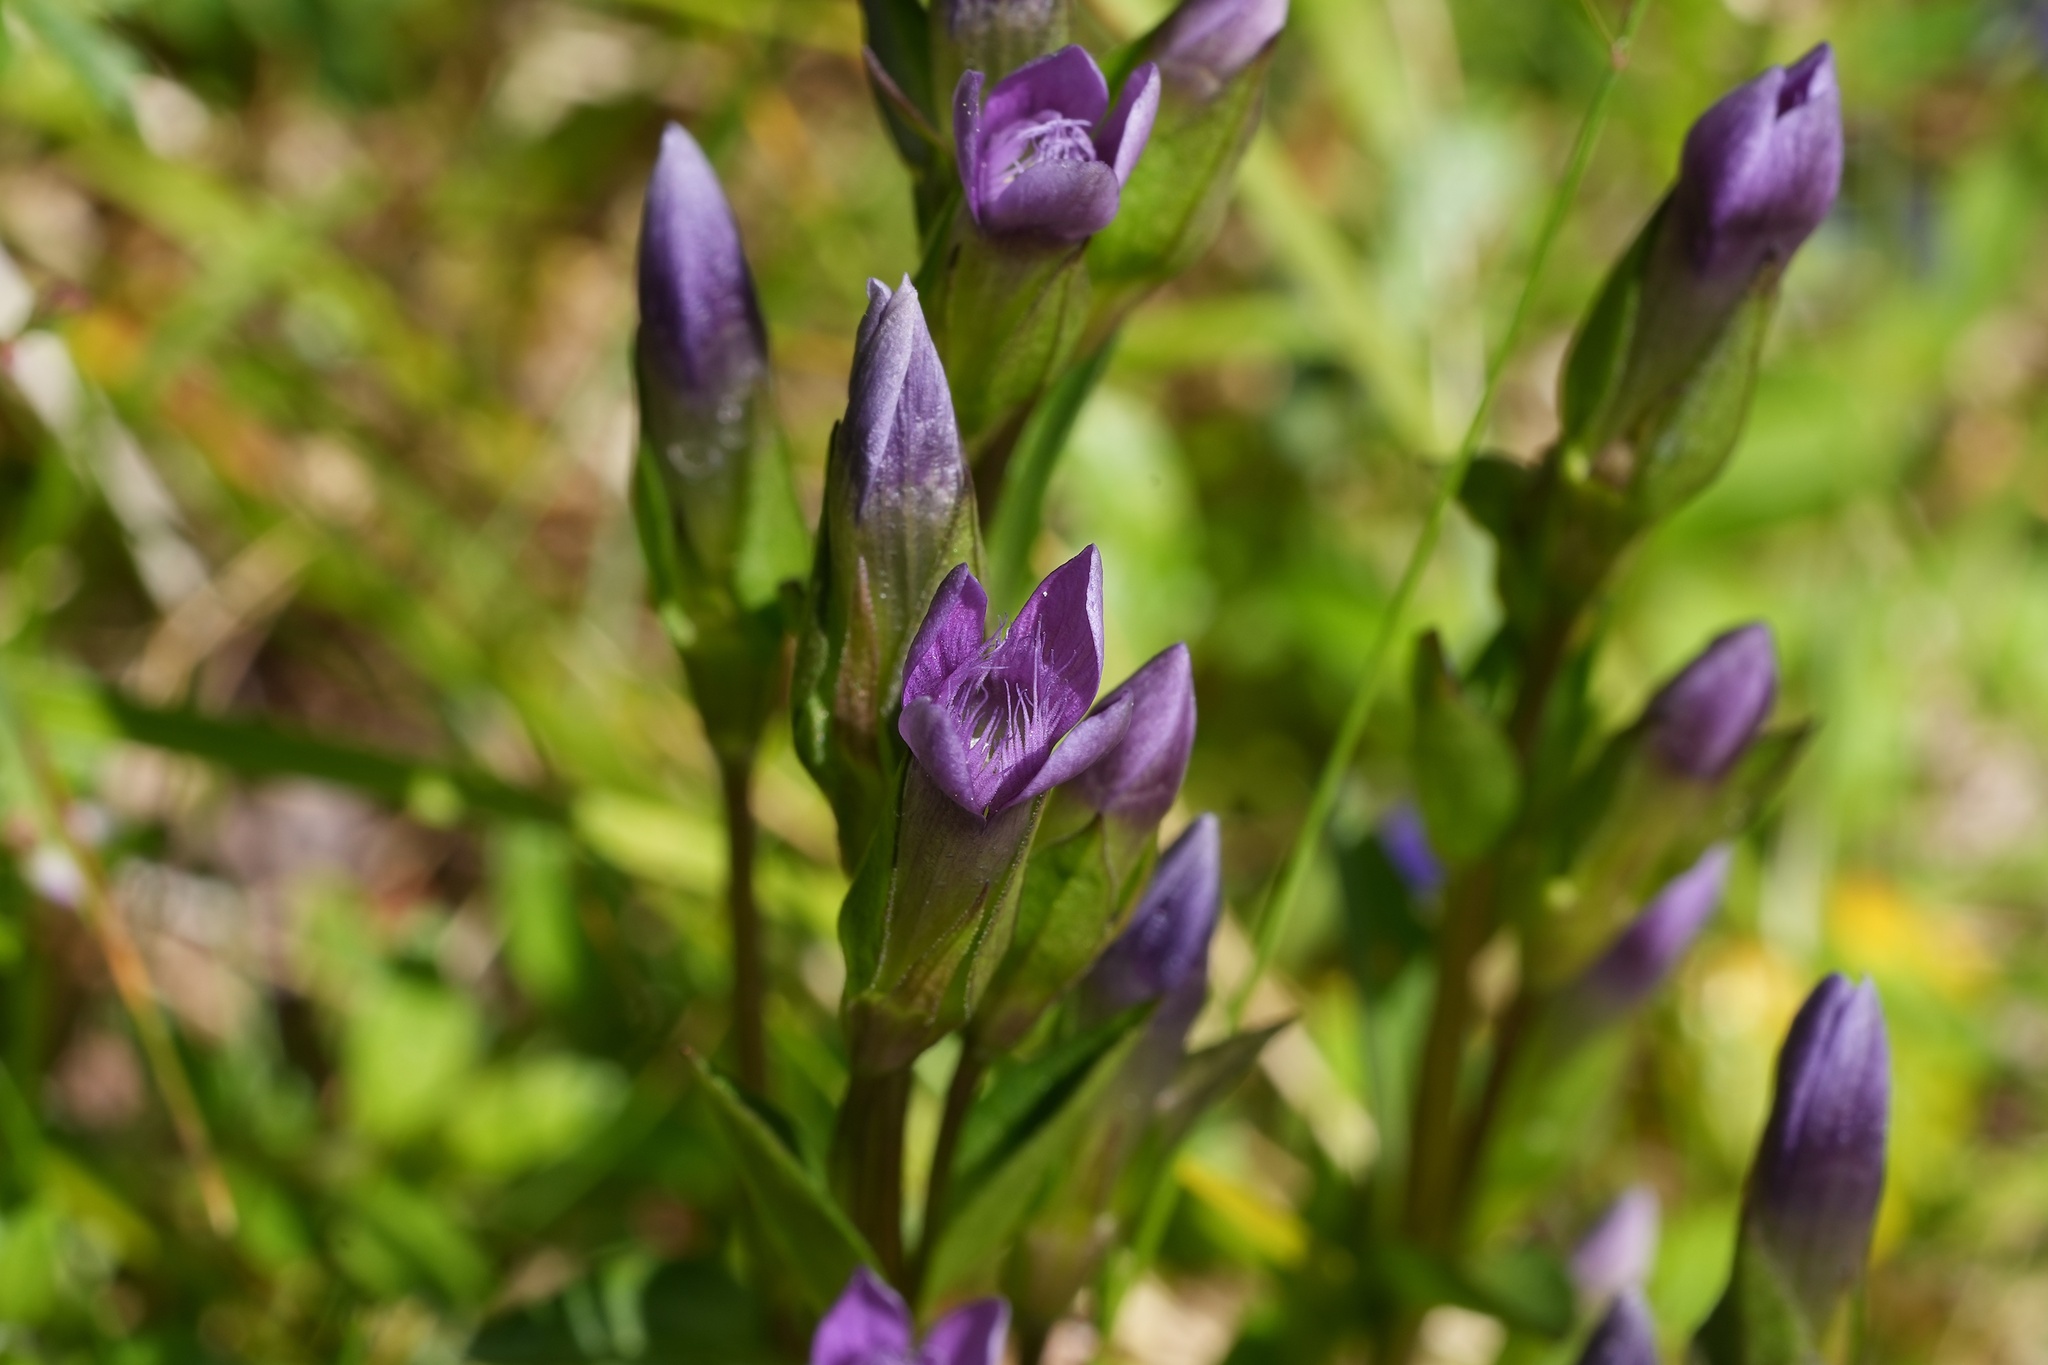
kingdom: Plantae
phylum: Tracheophyta
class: Magnoliopsida
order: Gentianales
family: Gentianaceae
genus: Gentianella
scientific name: Gentianella campestris
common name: Field gentian
